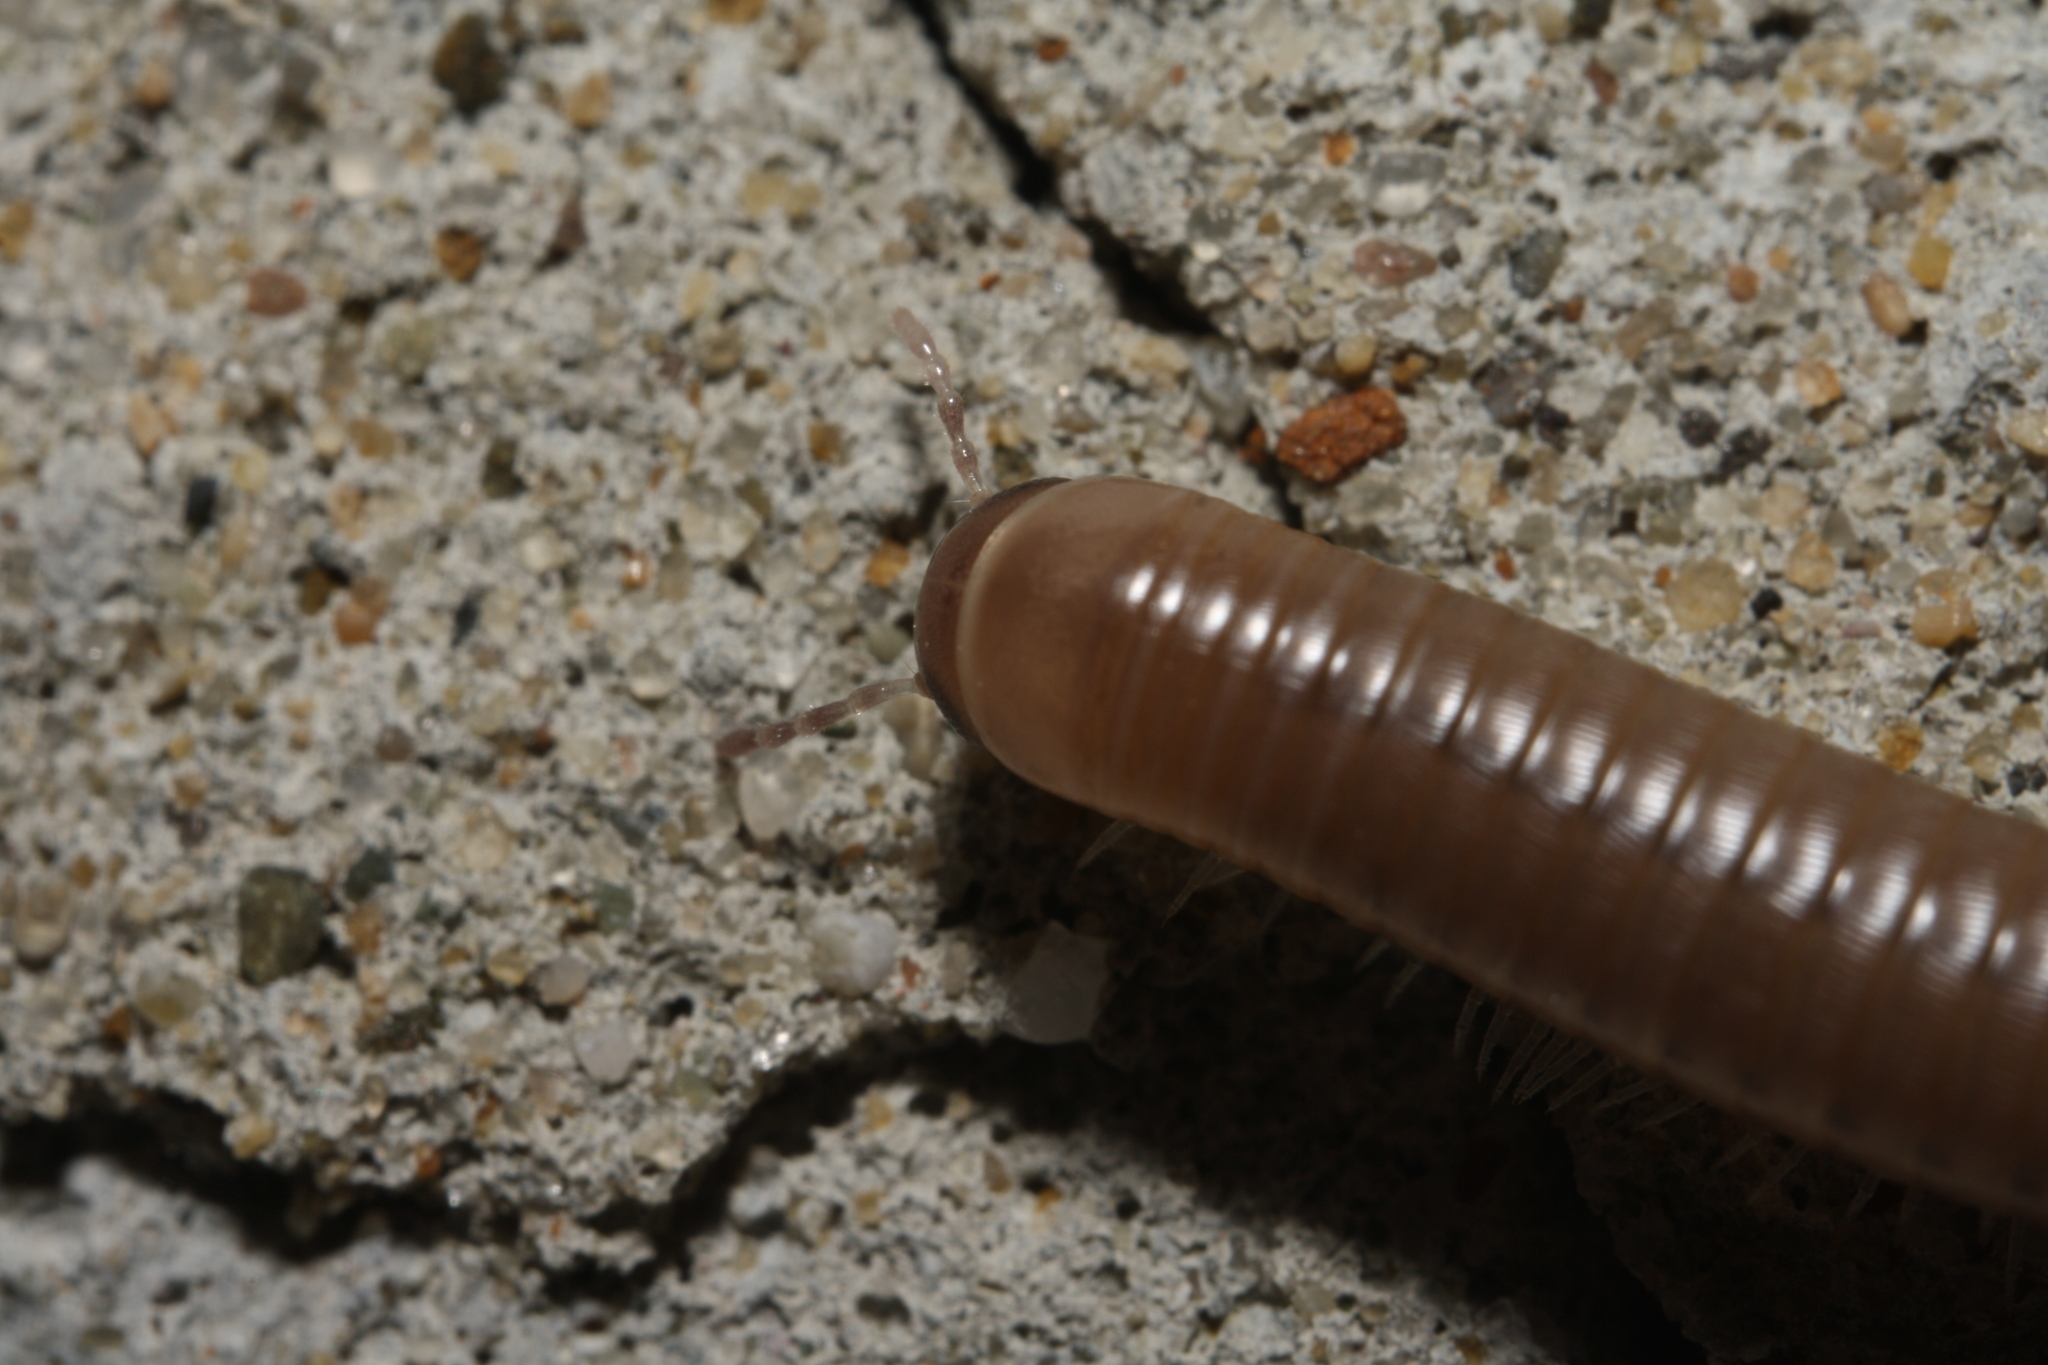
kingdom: Animalia
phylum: Arthropoda
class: Diplopoda
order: Julida
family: Julidae
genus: Pachyiulus
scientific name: Pachyiulus flavipes
